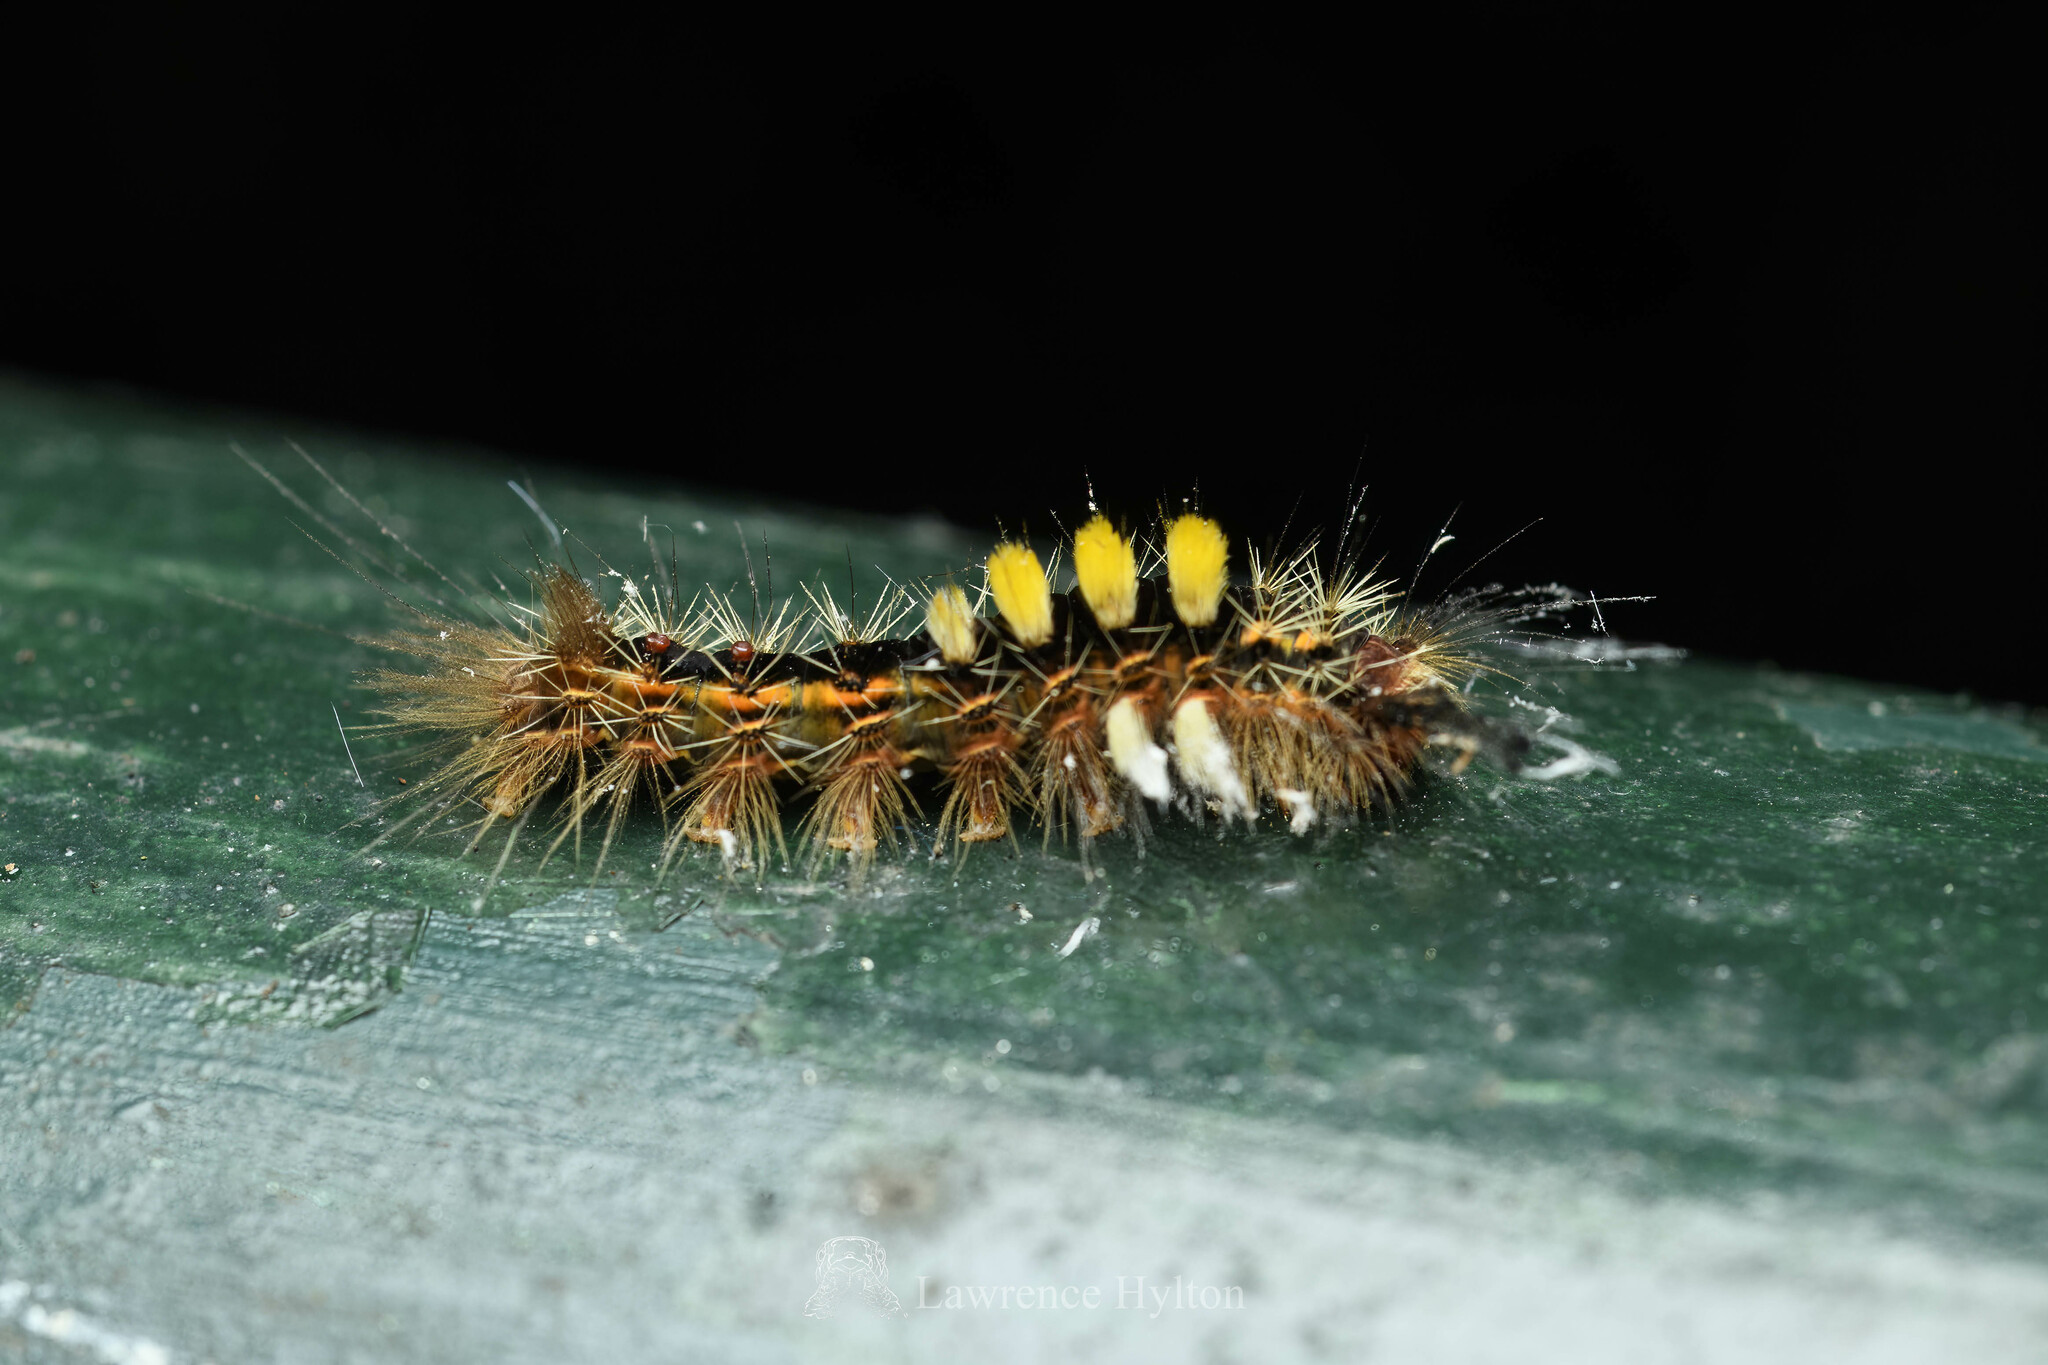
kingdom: Animalia
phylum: Arthropoda
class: Insecta
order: Lepidoptera
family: Erebidae
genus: Orgyia
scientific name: Orgyia postica
